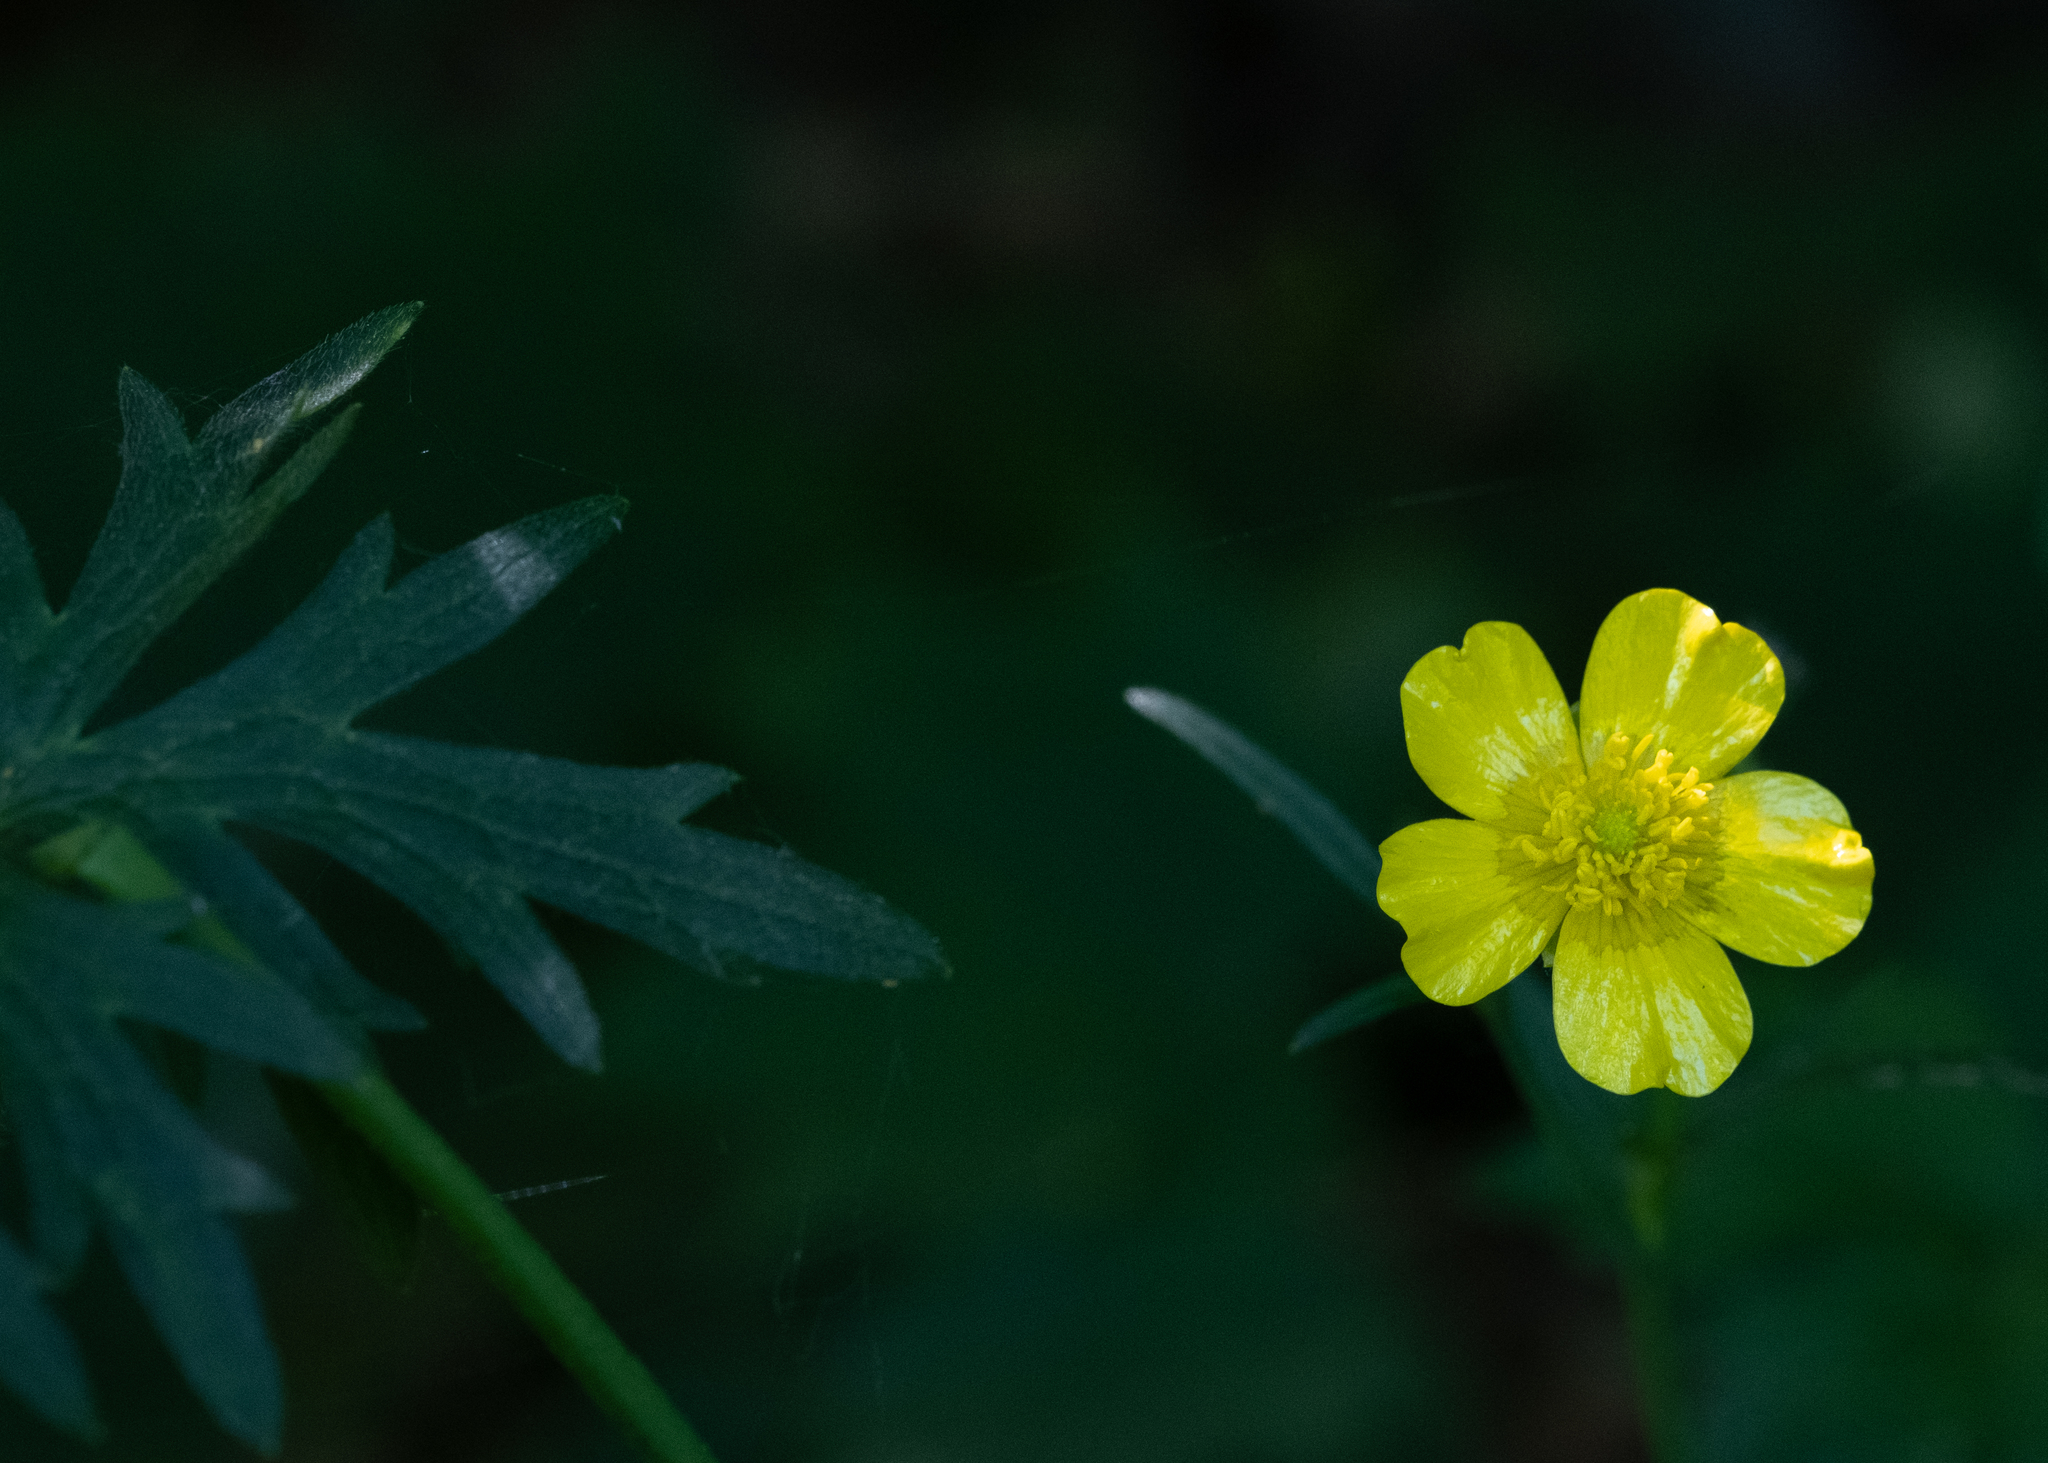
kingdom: Plantae
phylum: Tracheophyta
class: Magnoliopsida
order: Ranunculales
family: Ranunculaceae
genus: Ranunculus
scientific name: Ranunculus acris
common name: Meadow buttercup
